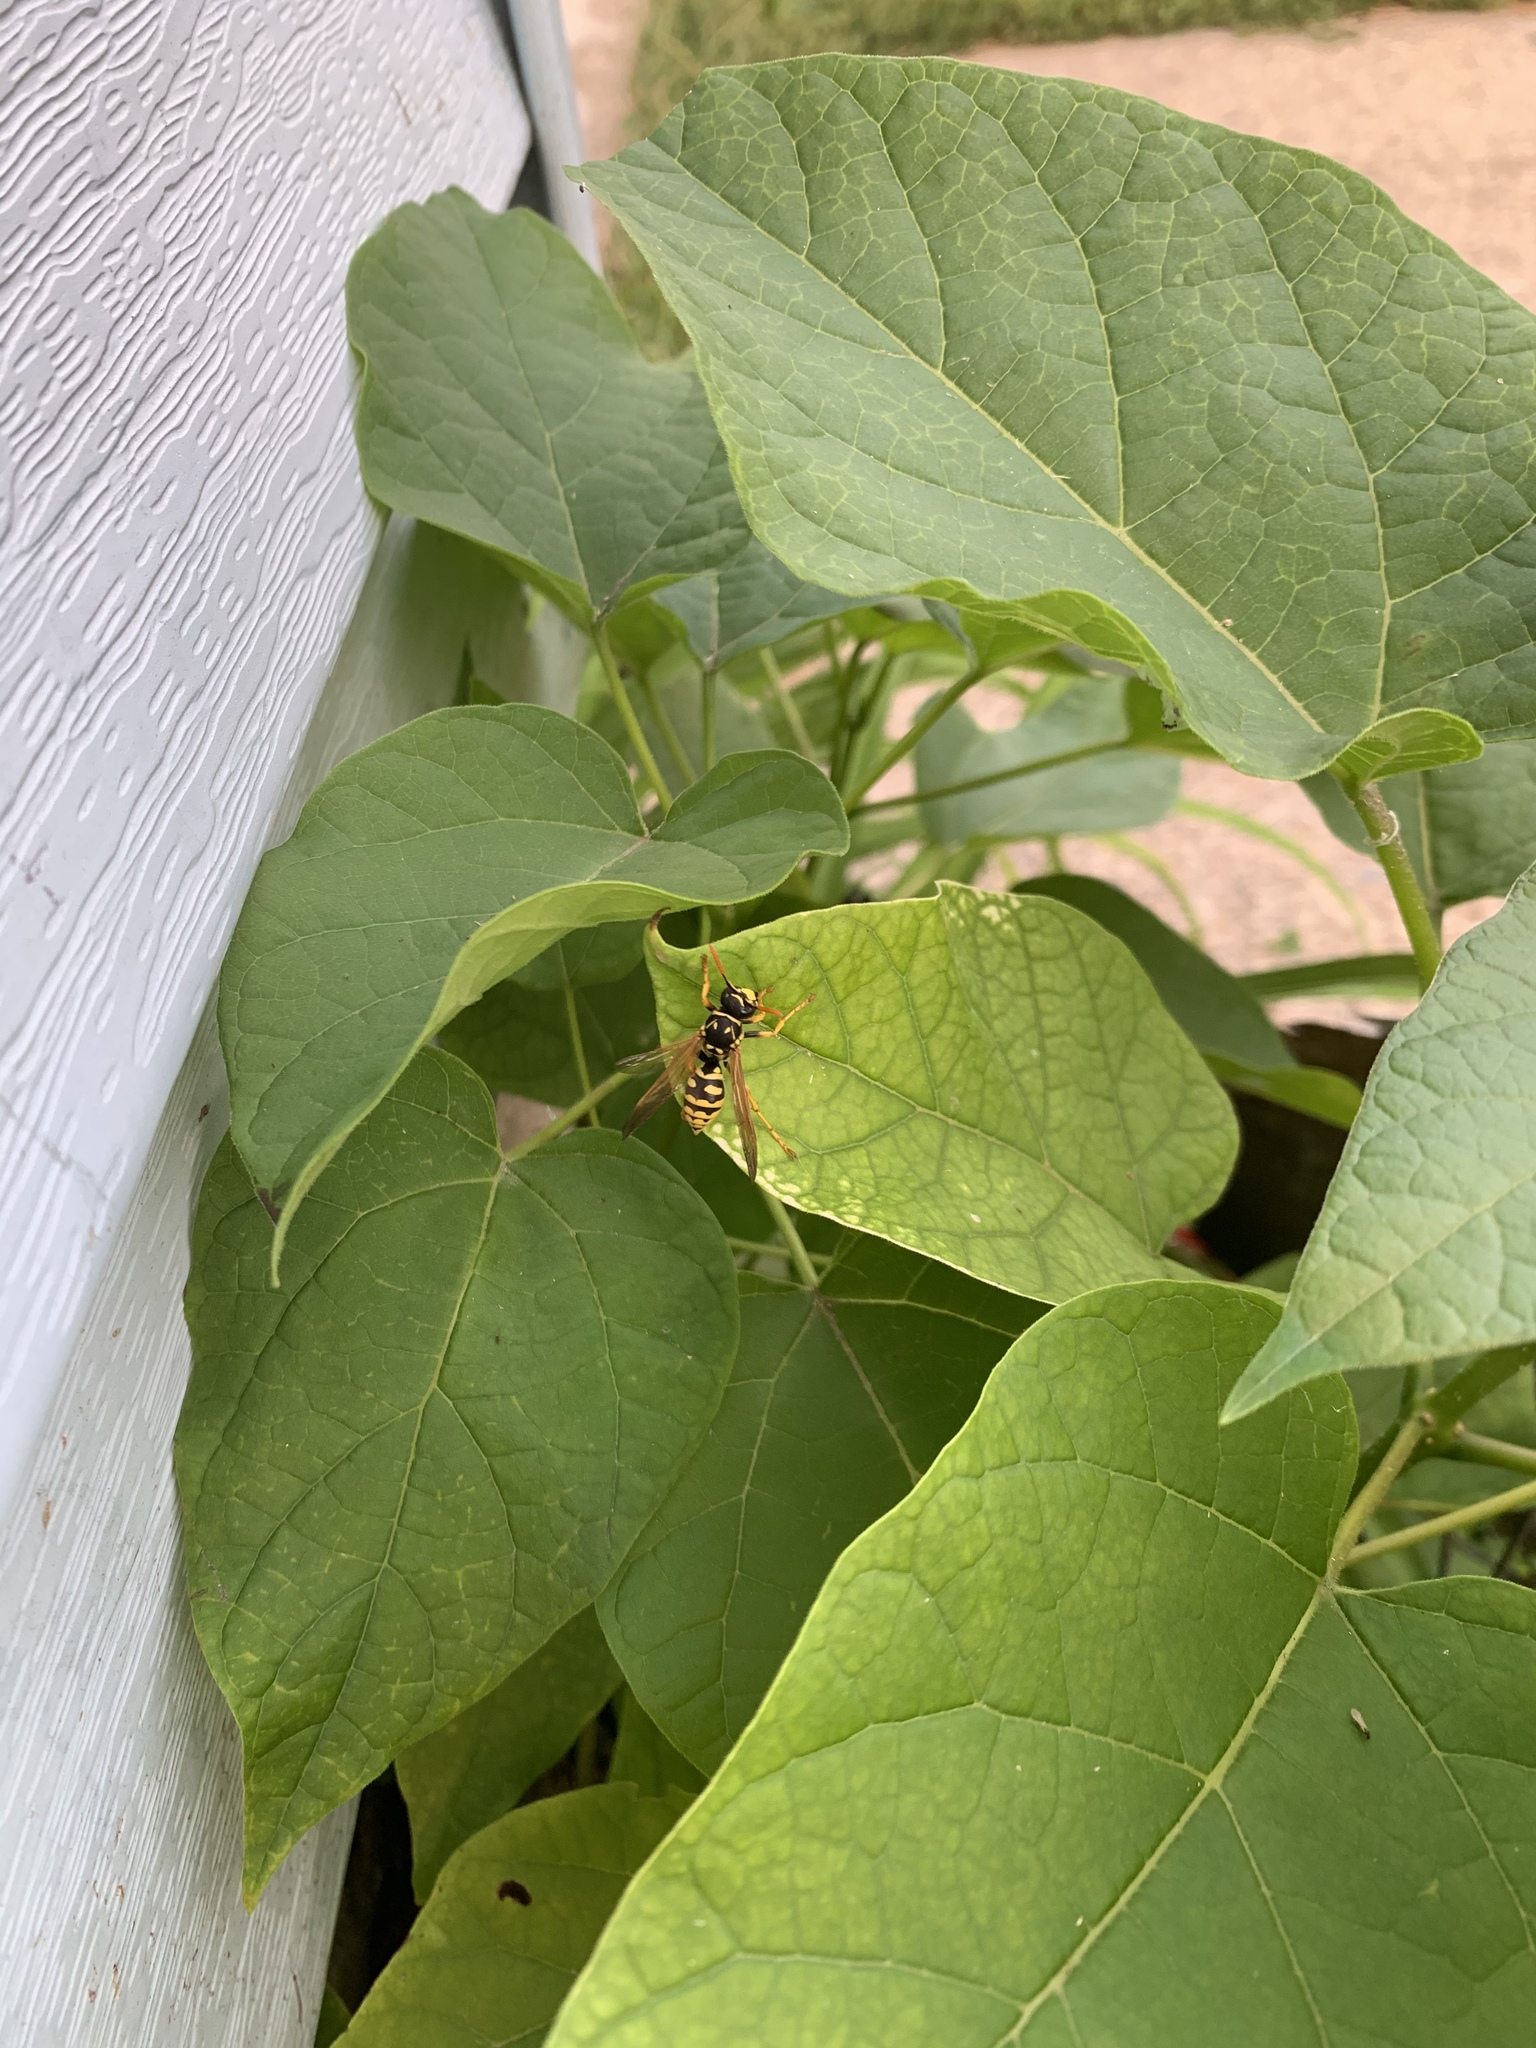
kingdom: Animalia
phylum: Arthropoda
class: Insecta
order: Hymenoptera
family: Eumenidae
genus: Polistes
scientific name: Polistes dominula
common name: Paper wasp
